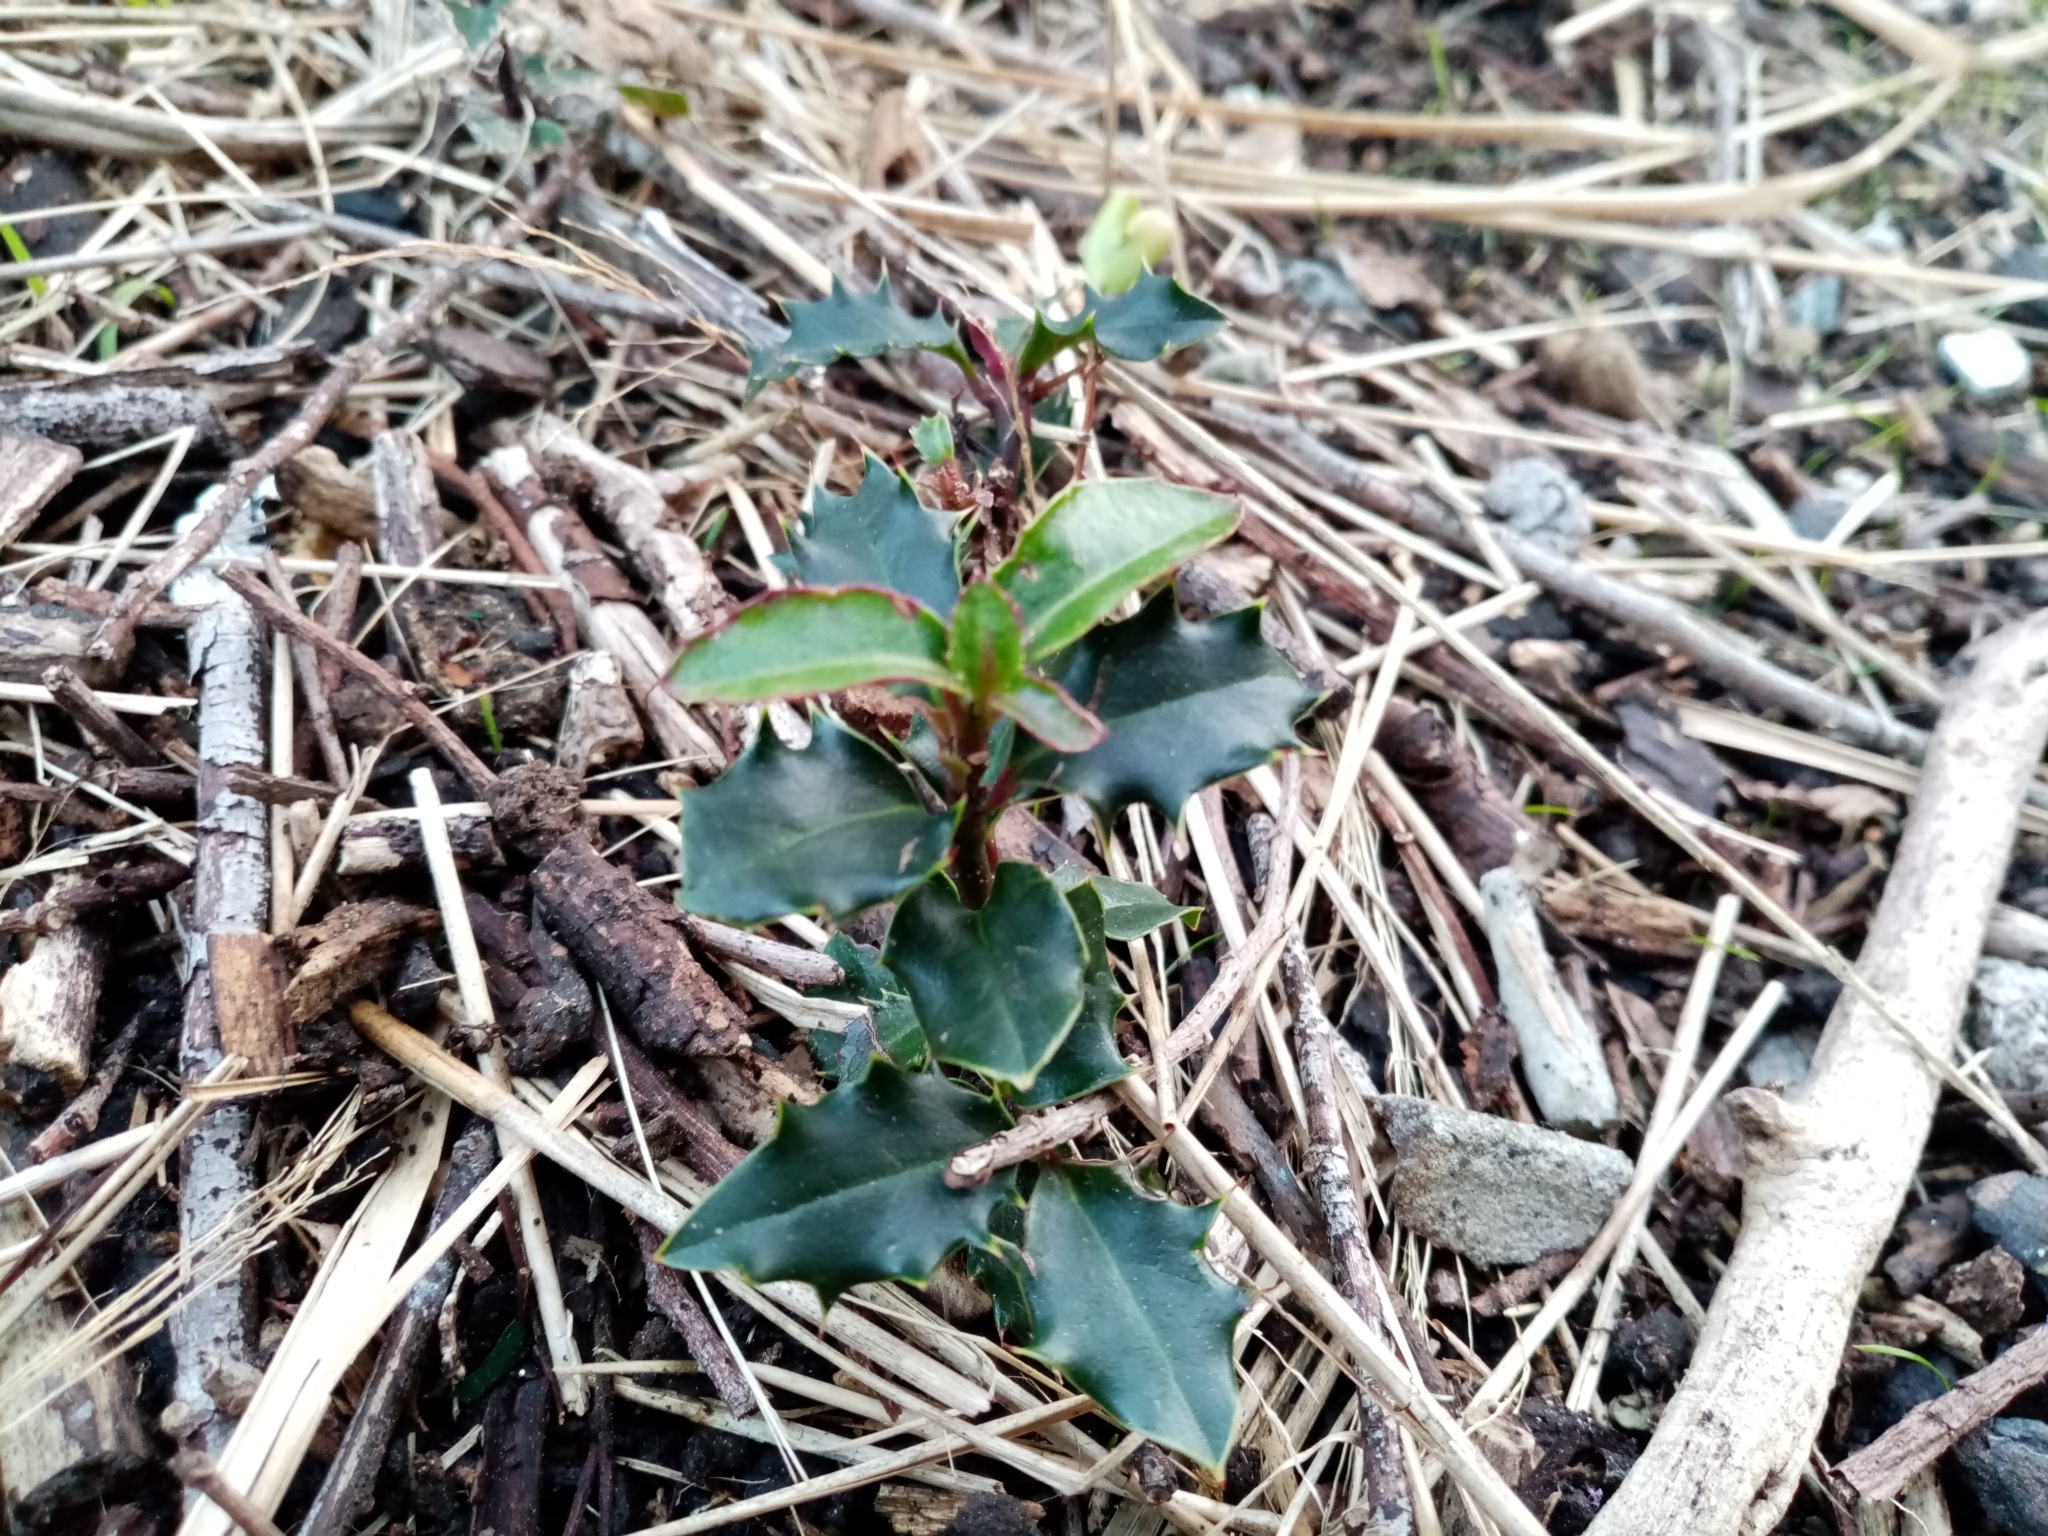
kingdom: Plantae
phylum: Tracheophyta
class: Magnoliopsida
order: Aquifoliales
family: Aquifoliaceae
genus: Ilex
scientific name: Ilex aquifolium
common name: English holly
